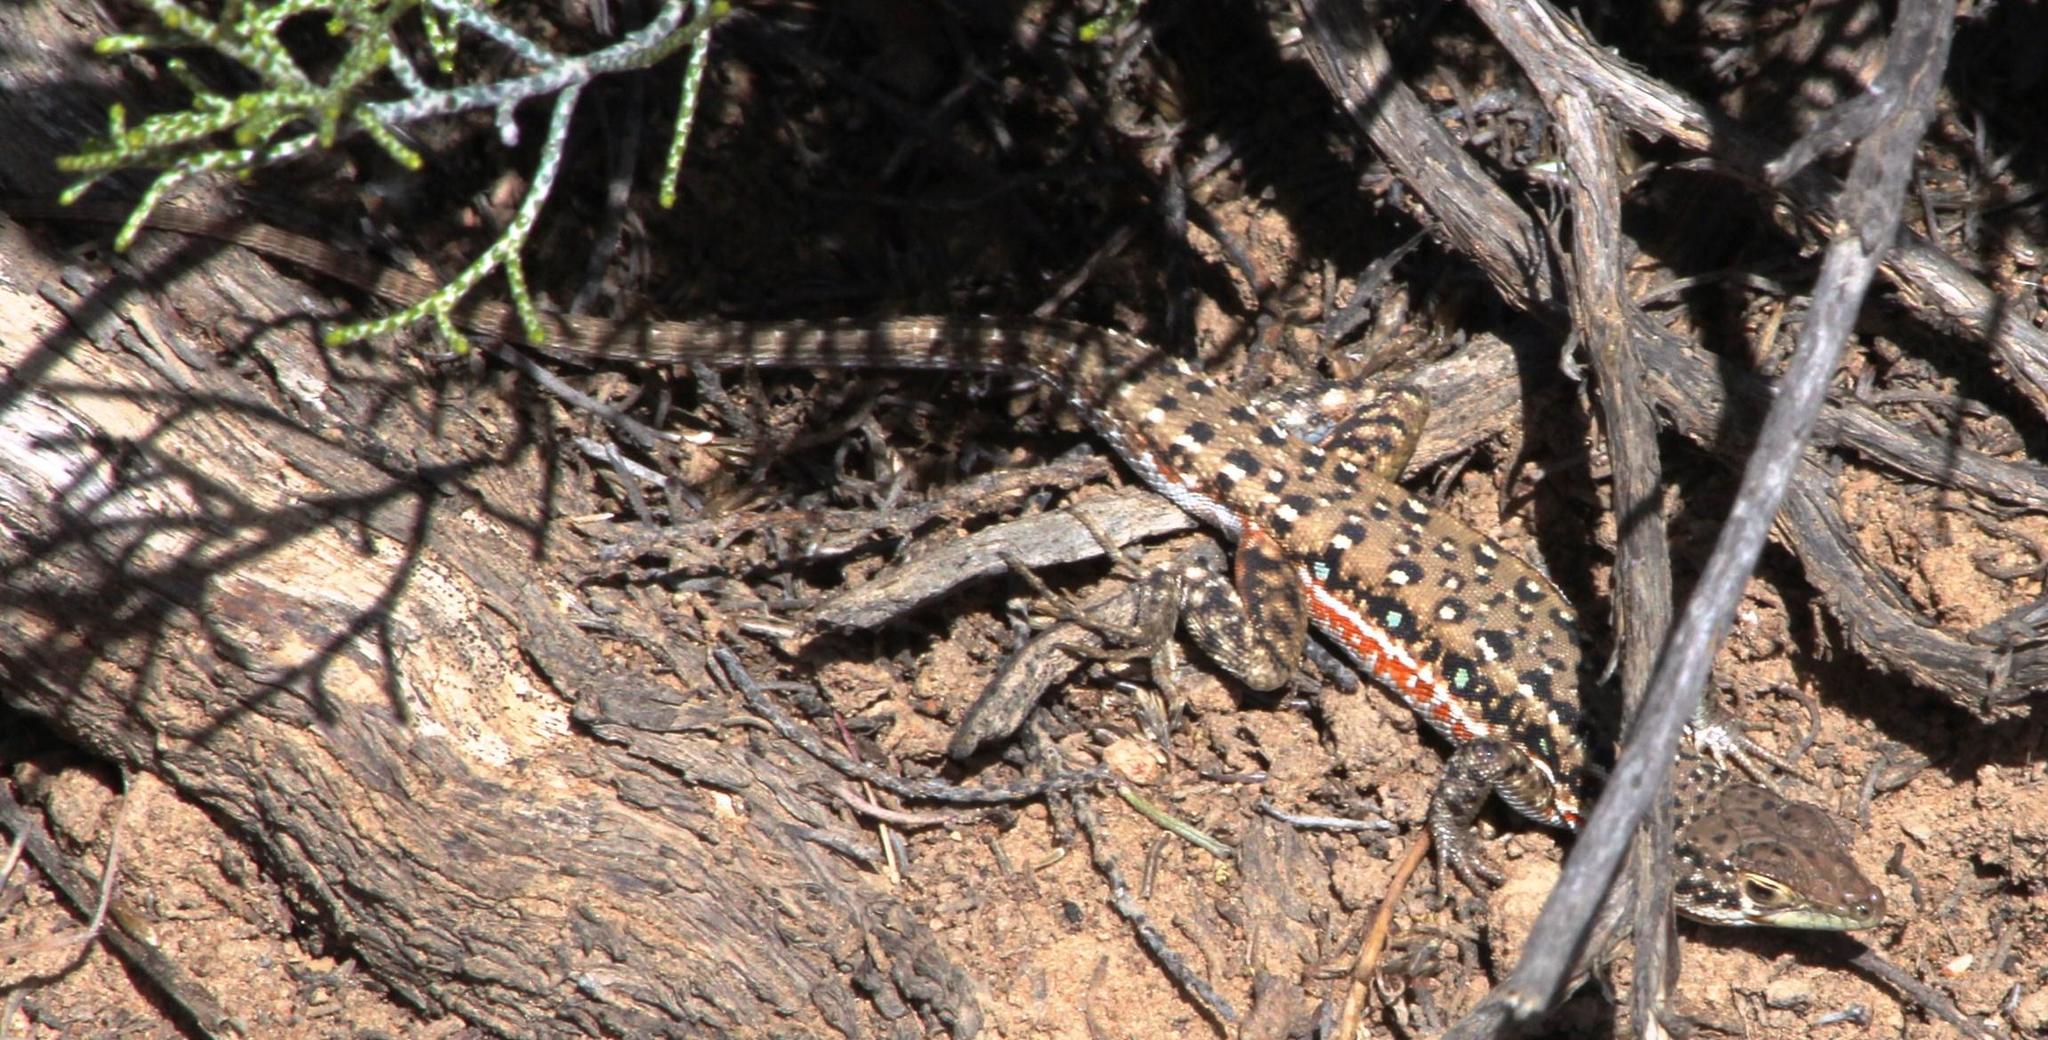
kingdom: Animalia
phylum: Chordata
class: Squamata
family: Lacertidae
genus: Pedioplanis
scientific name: Pedioplanis lineoocellata
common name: Spotted sand lizard
